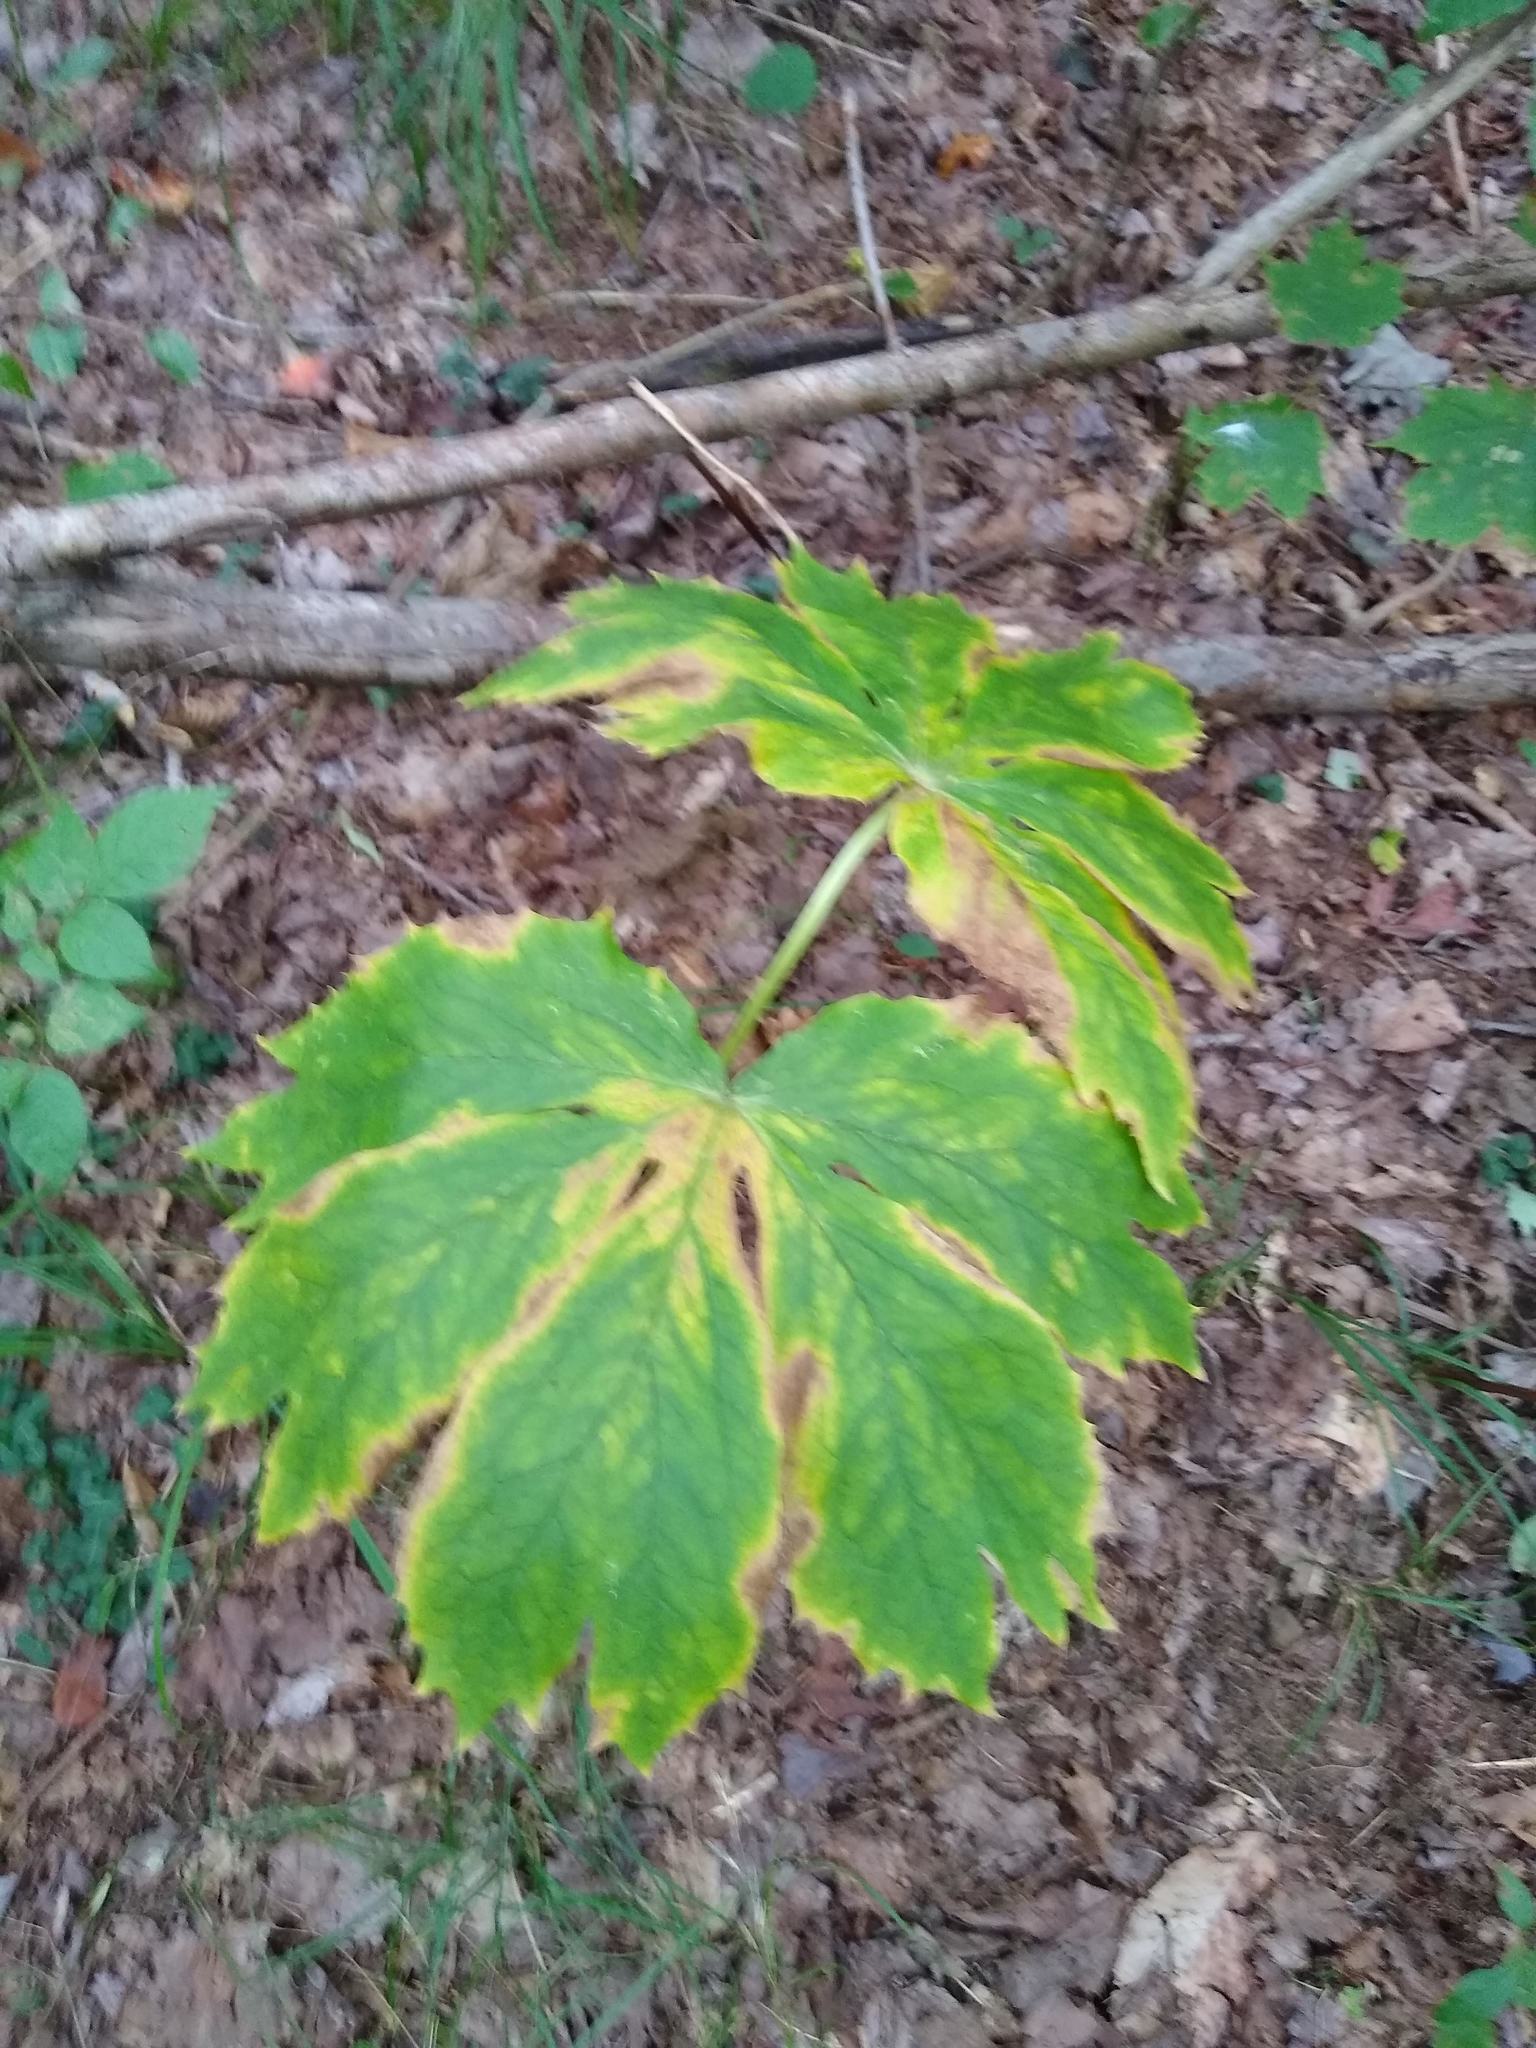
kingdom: Plantae
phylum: Tracheophyta
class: Magnoliopsida
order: Ranunculales
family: Berberidaceae
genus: Podophyllum
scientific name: Podophyllum peltatum
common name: Wild mandrake
